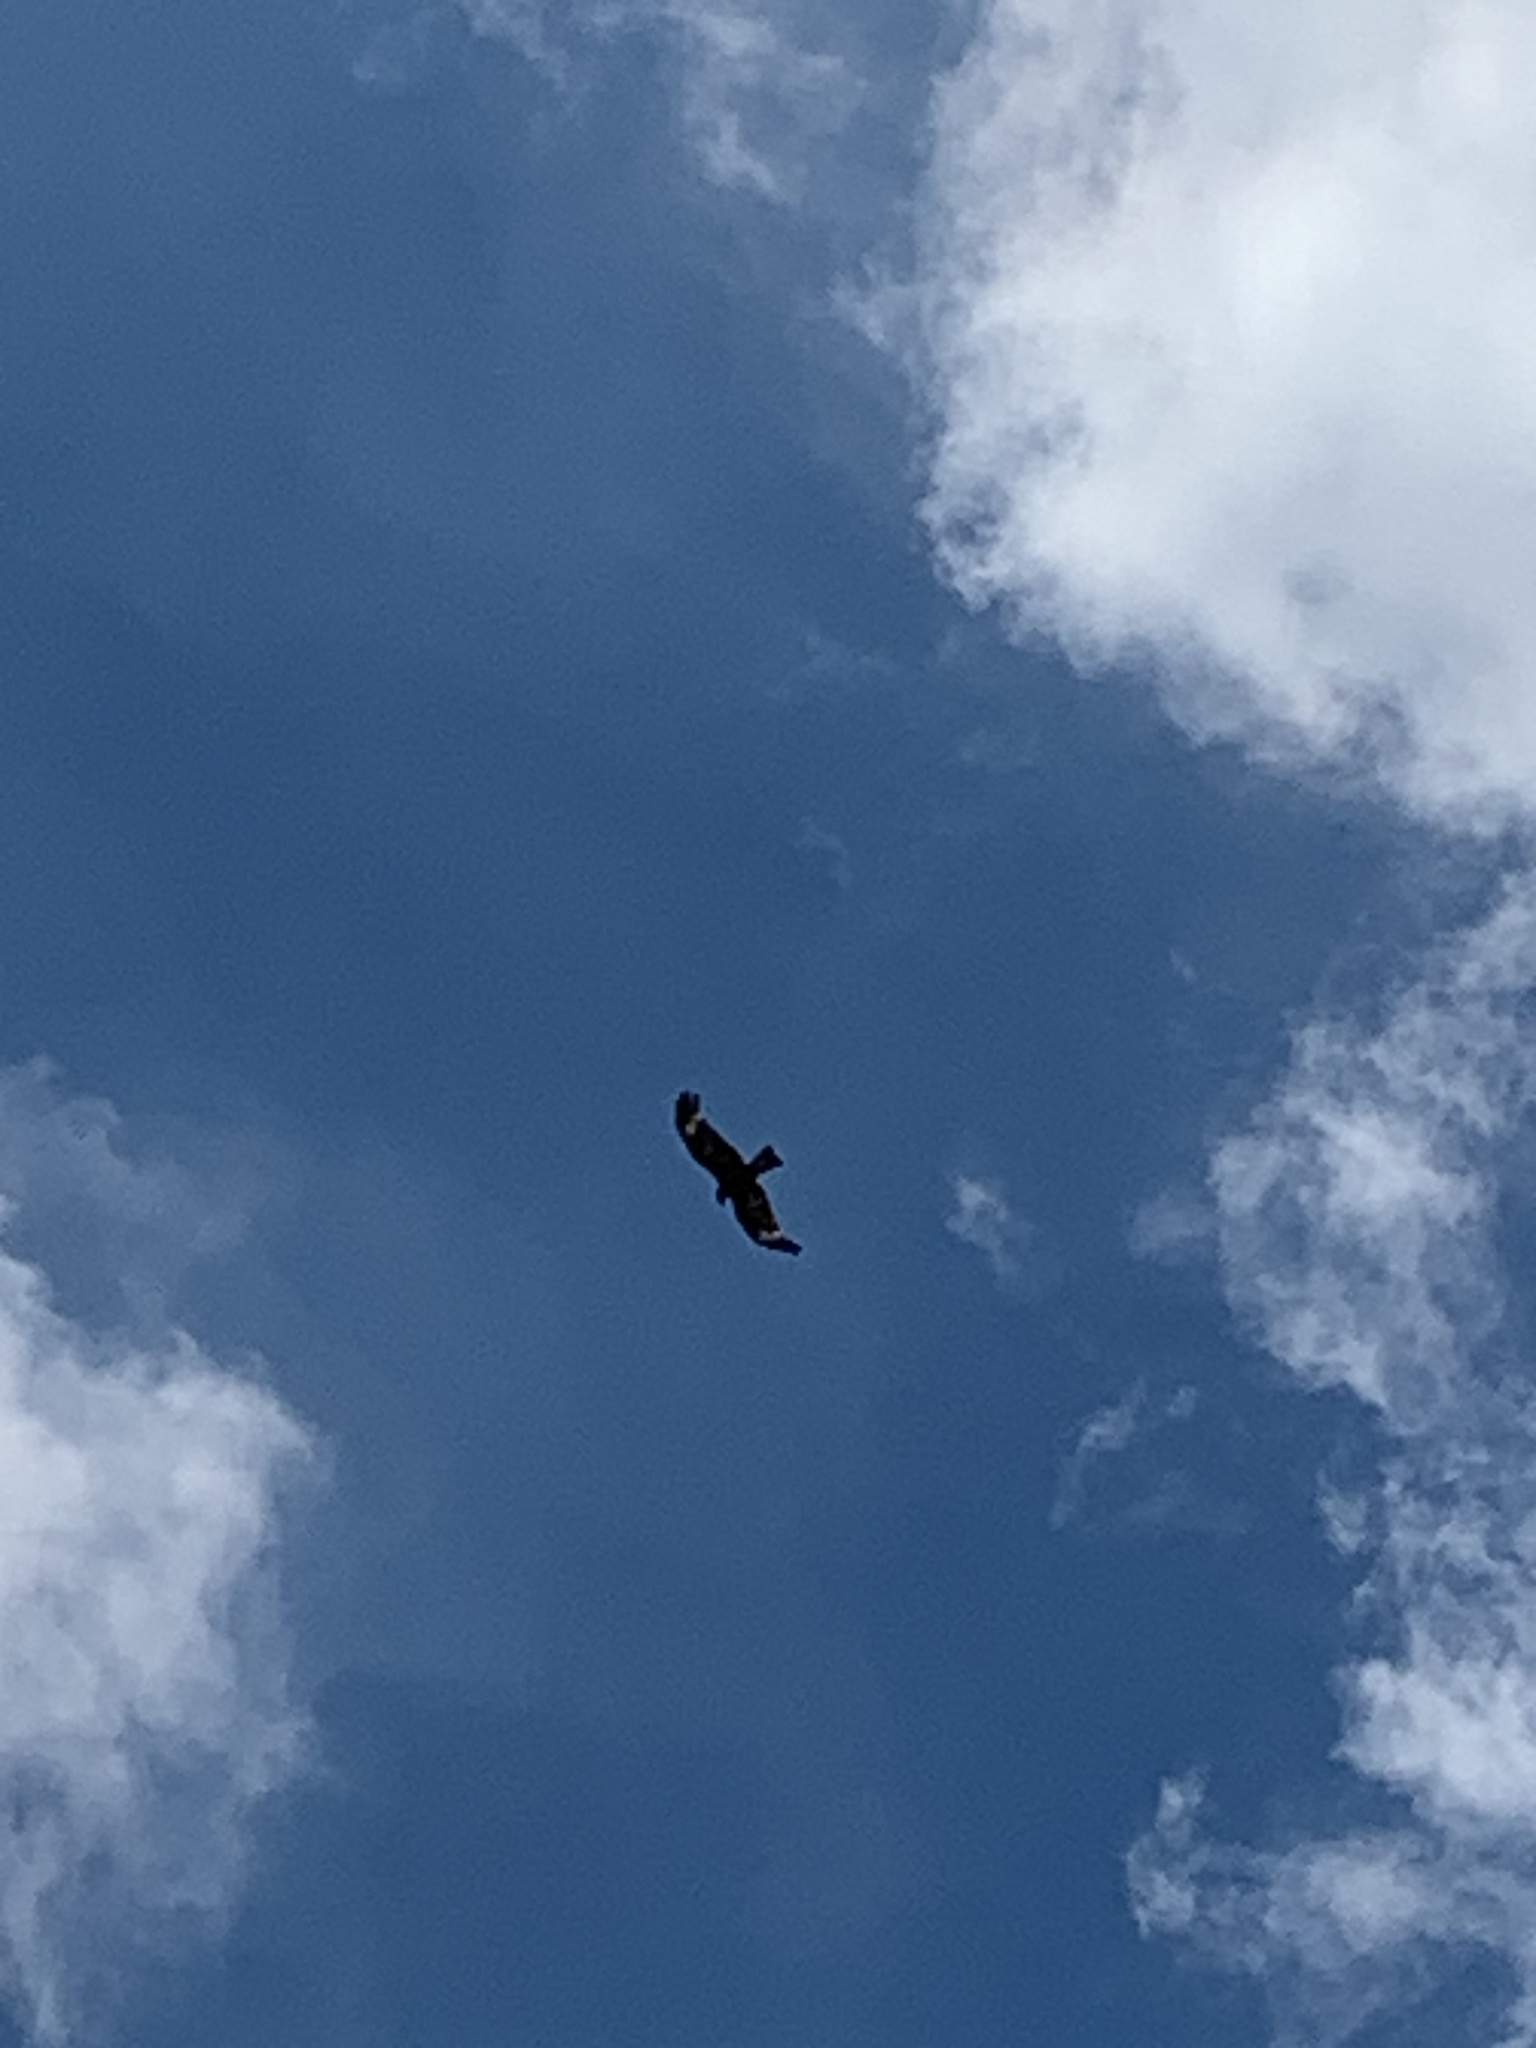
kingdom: Animalia
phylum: Chordata
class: Aves
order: Accipitriformes
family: Accipitridae
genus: Lophoictinia
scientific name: Lophoictinia isura
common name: Square-tailed kite
